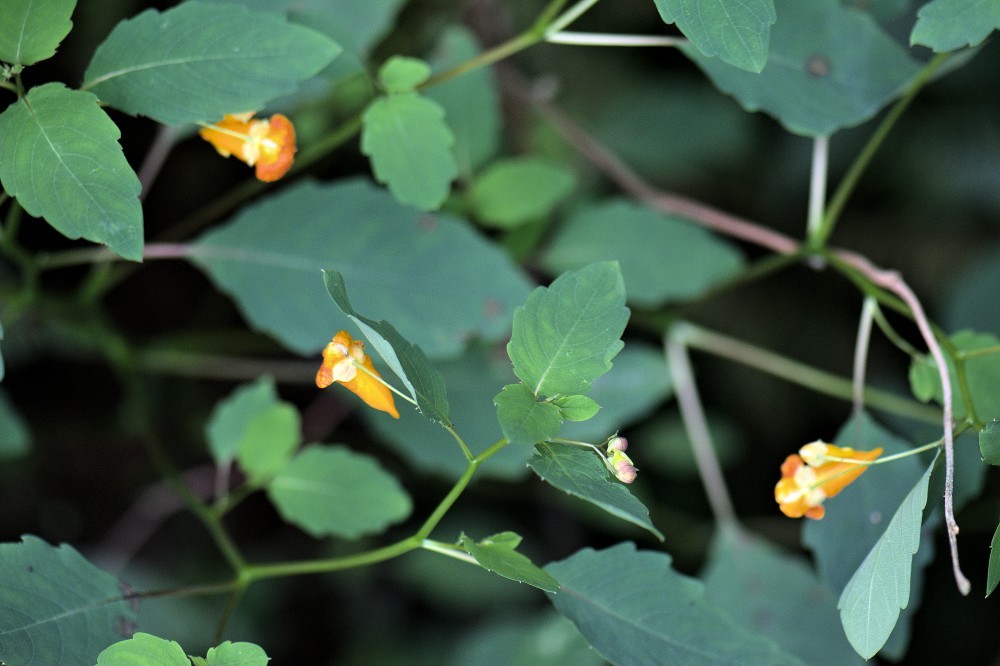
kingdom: Plantae
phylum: Tracheophyta
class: Magnoliopsida
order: Ericales
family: Balsaminaceae
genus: Impatiens
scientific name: Impatiens capensis
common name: Orange balsam
